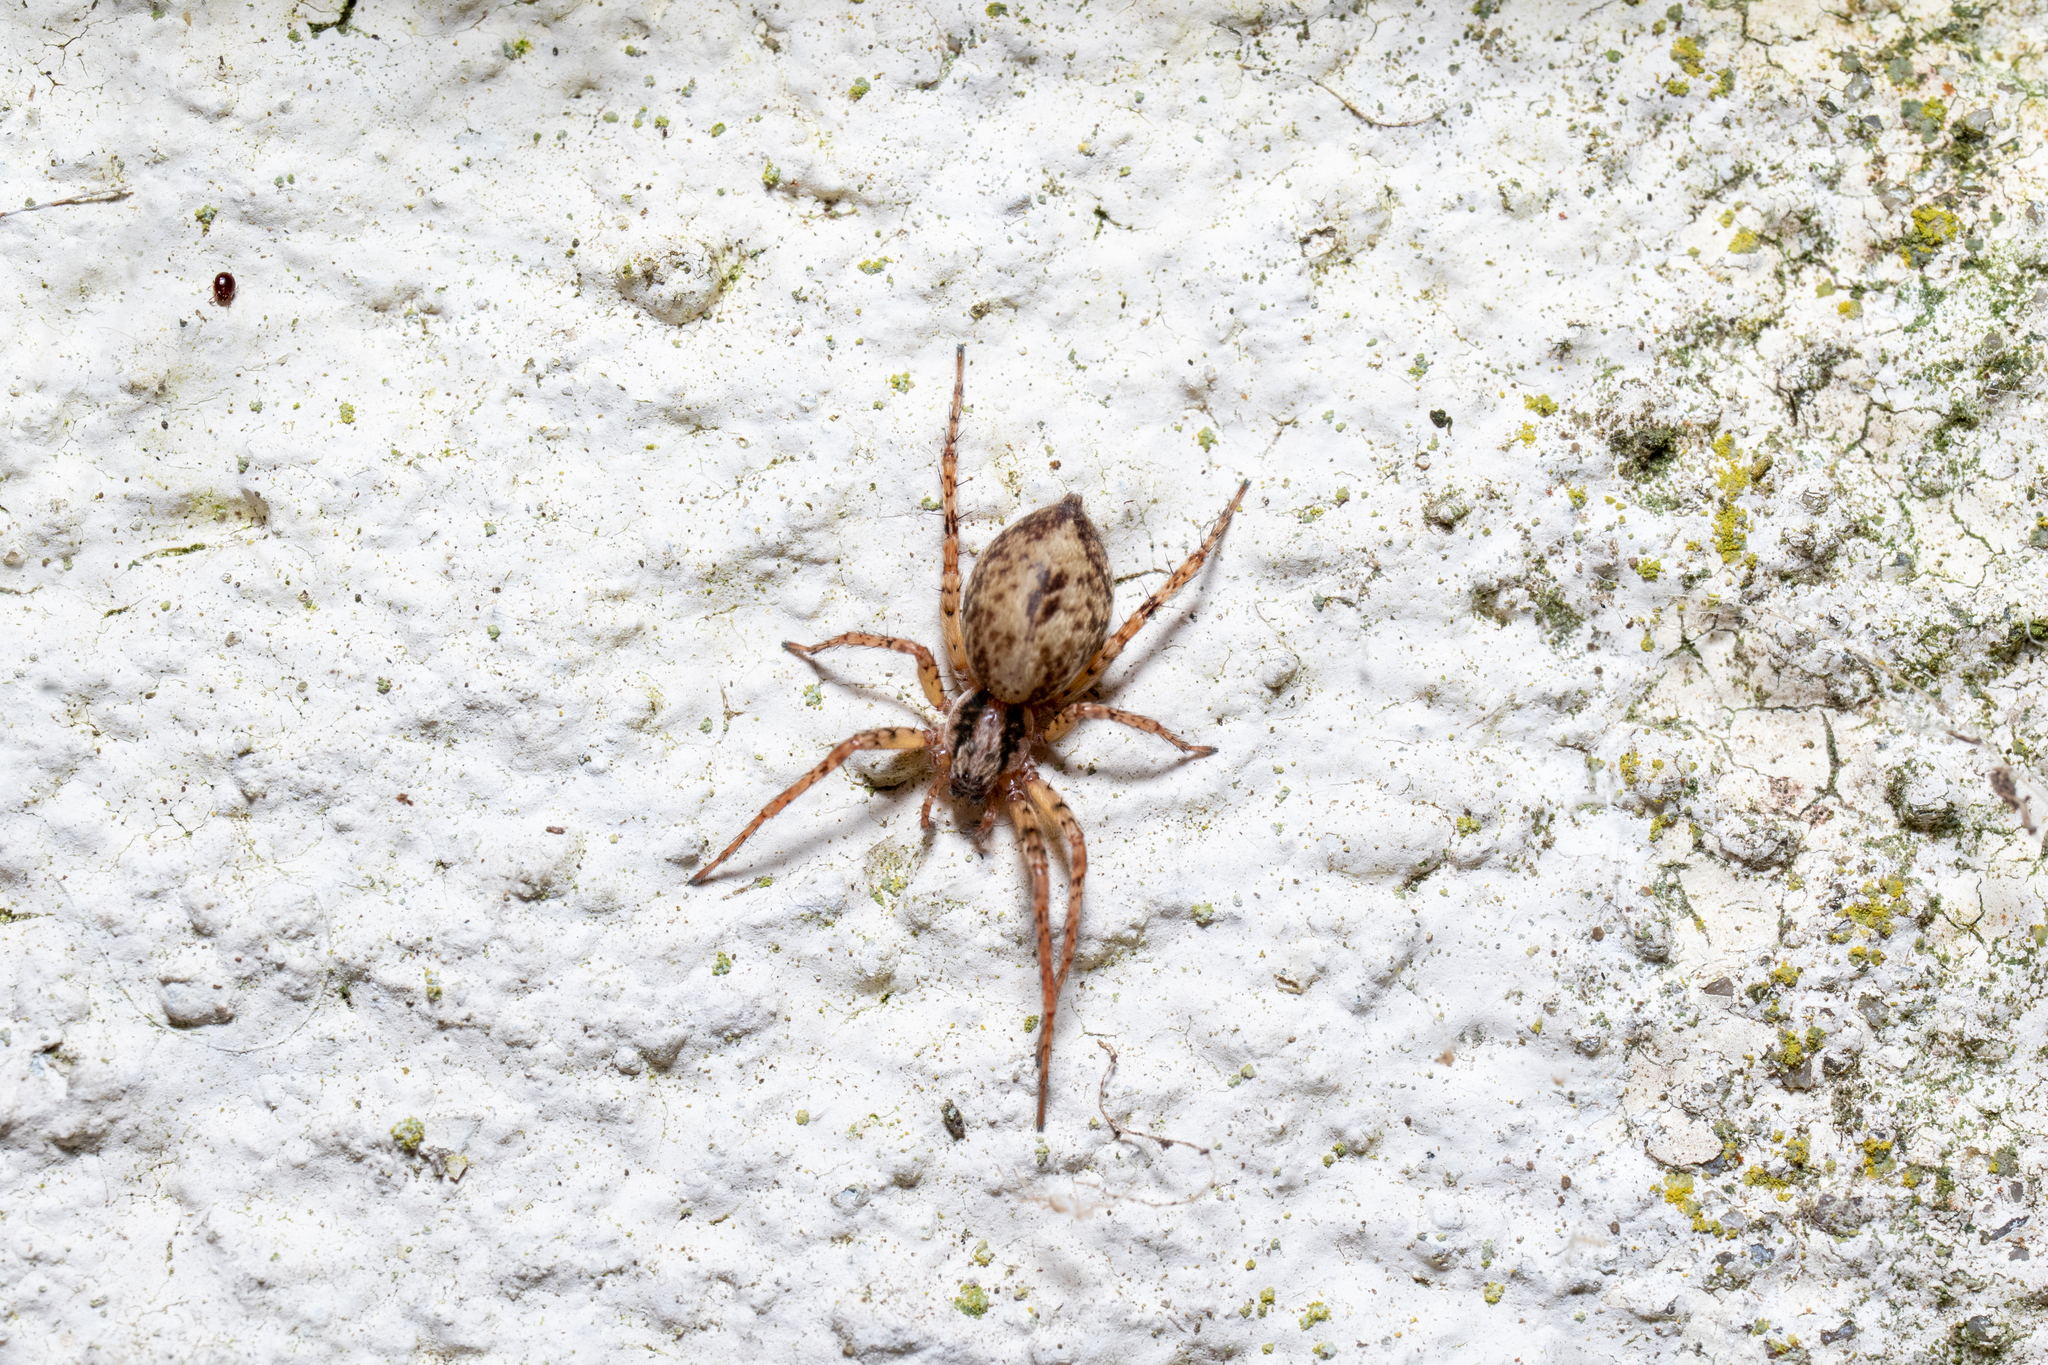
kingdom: Animalia
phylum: Arthropoda
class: Arachnida
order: Araneae
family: Anyphaenidae
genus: Anyphaena
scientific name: Anyphaena accentuata
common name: Buzzing spider
